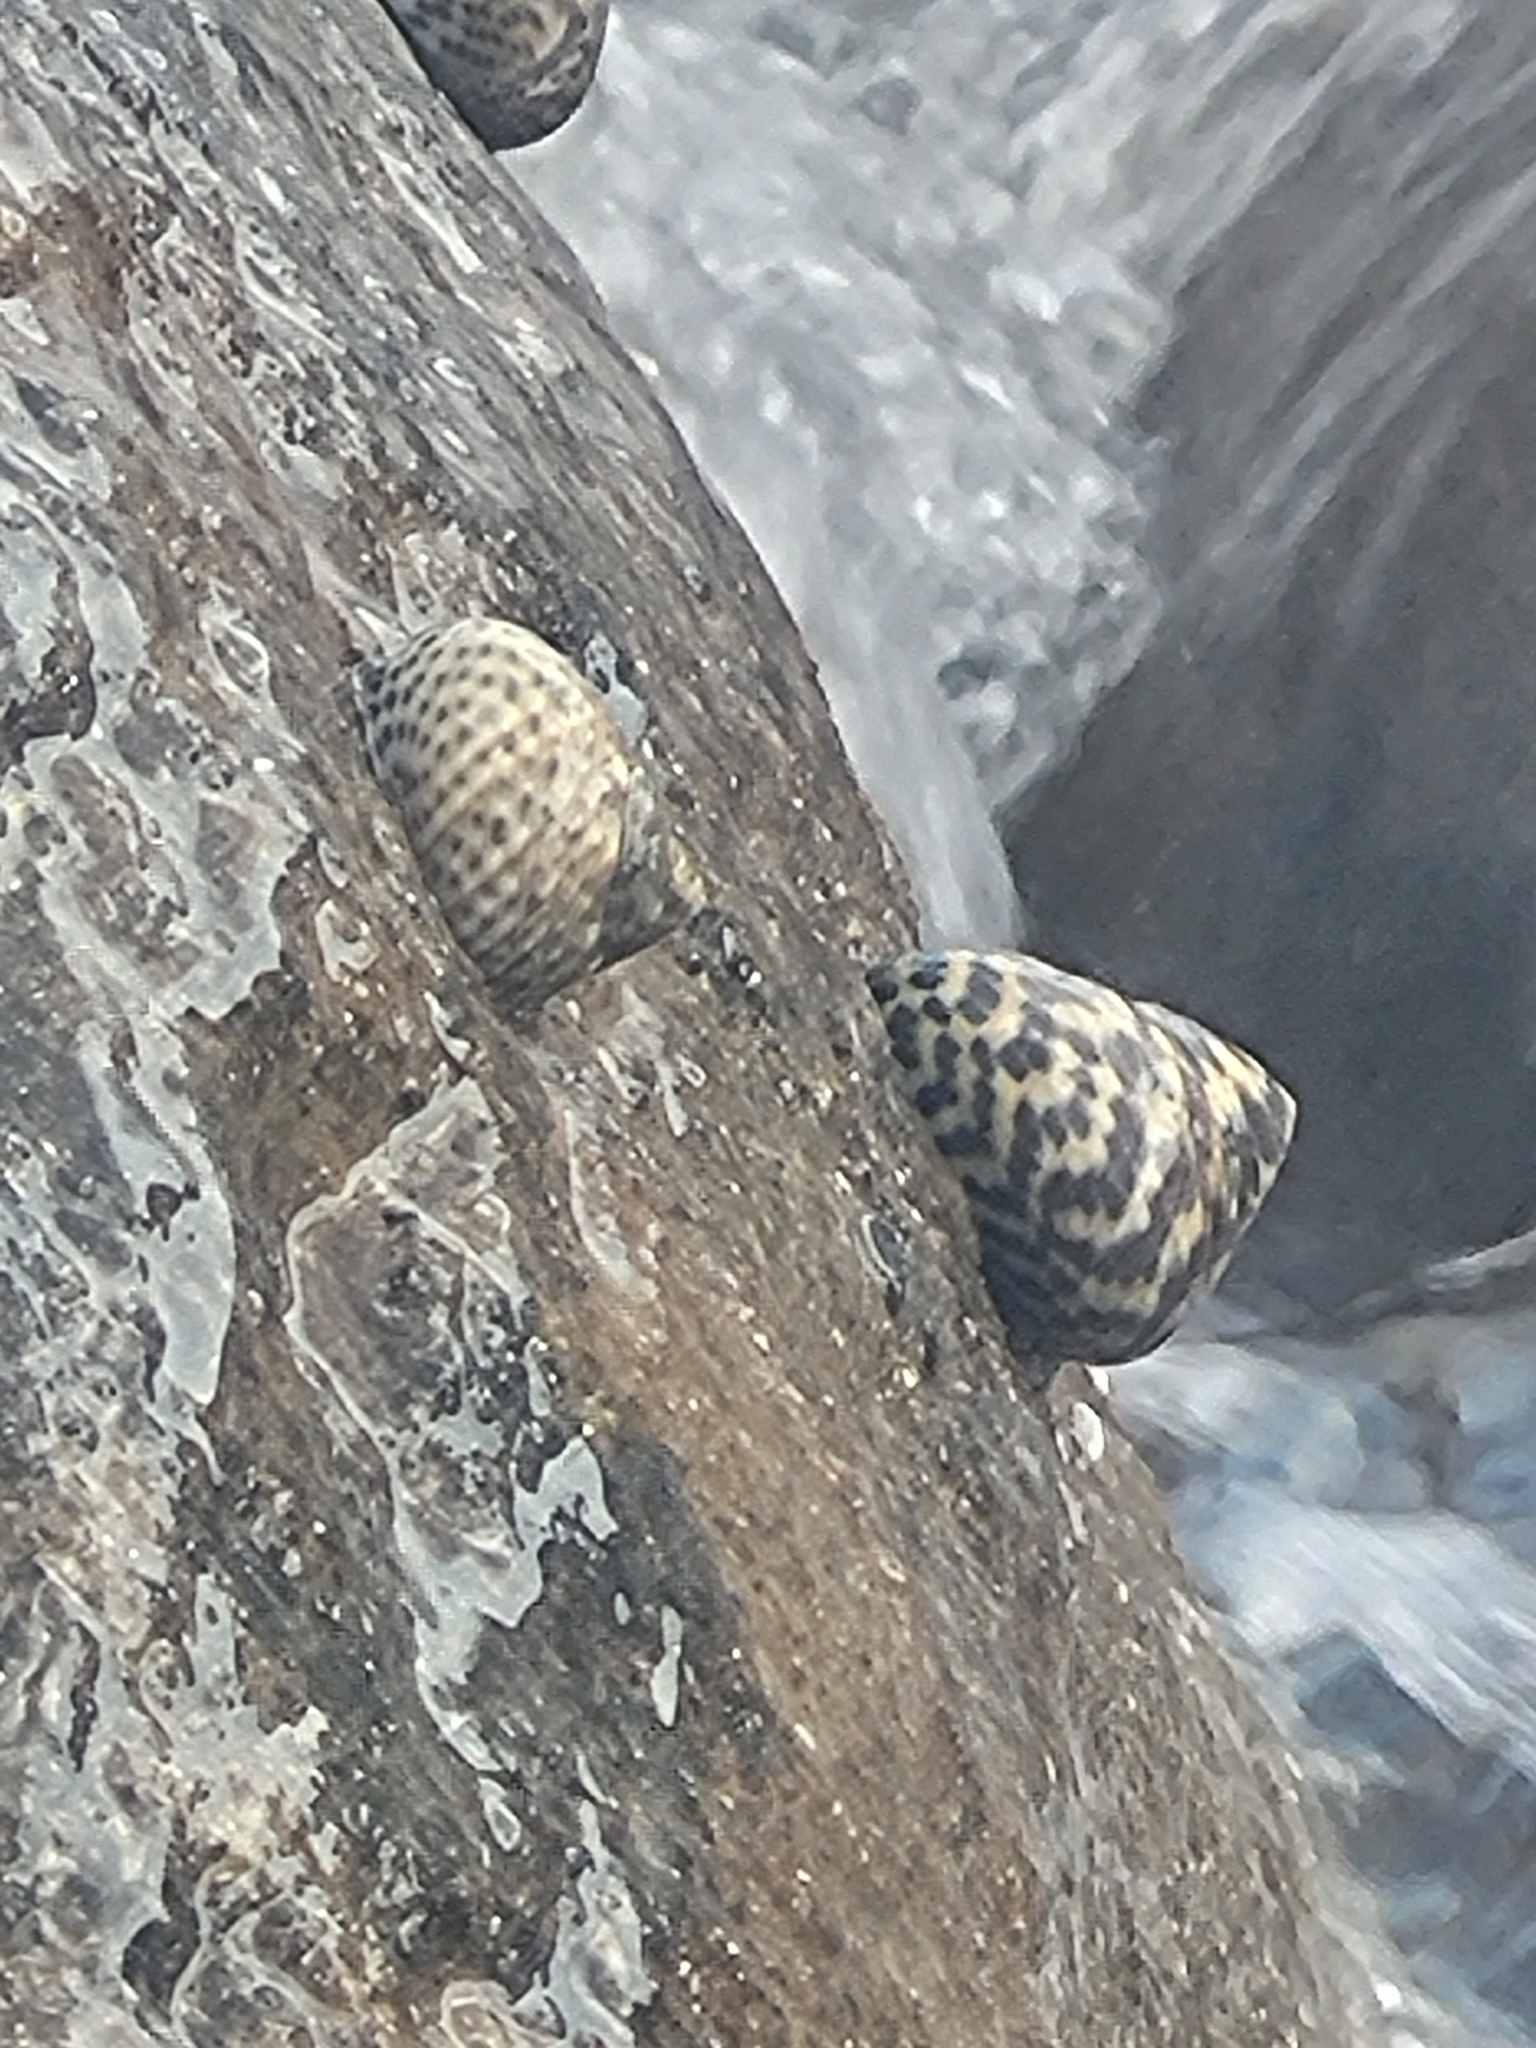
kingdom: Animalia
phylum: Mollusca
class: Gastropoda
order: Trochida
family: Trochidae
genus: Phorcus
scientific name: Phorcus turbinatus
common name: Turbinate monodont
